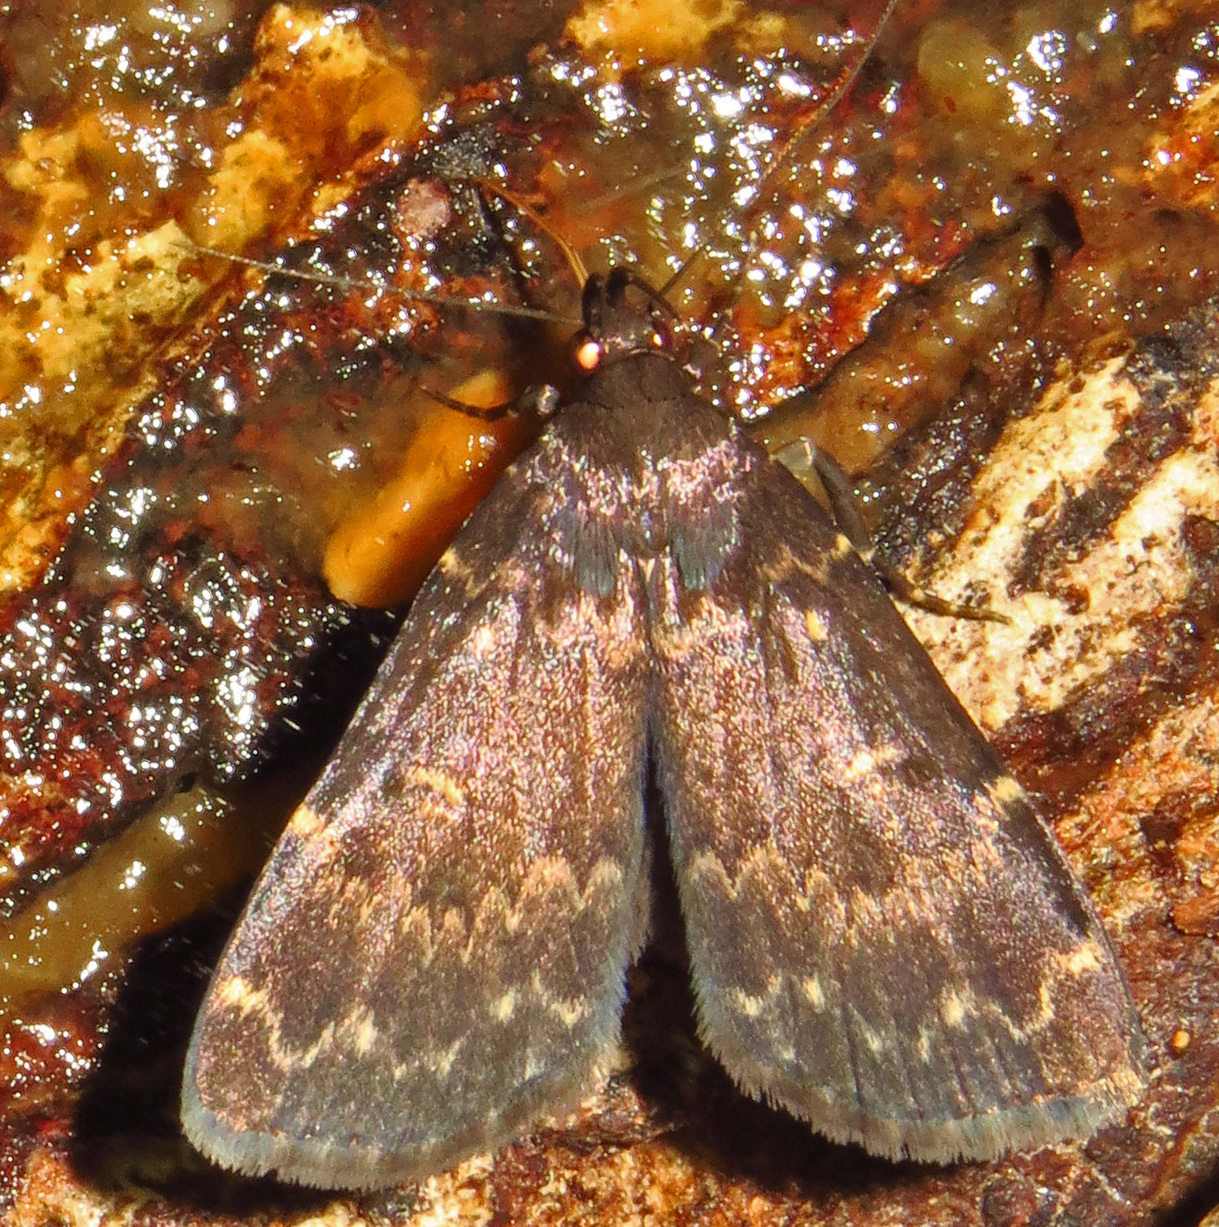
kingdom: Animalia
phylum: Arthropoda
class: Insecta
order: Lepidoptera
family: Erebidae
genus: Idia
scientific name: Idia lubricalis
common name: Twin-striped tabby
